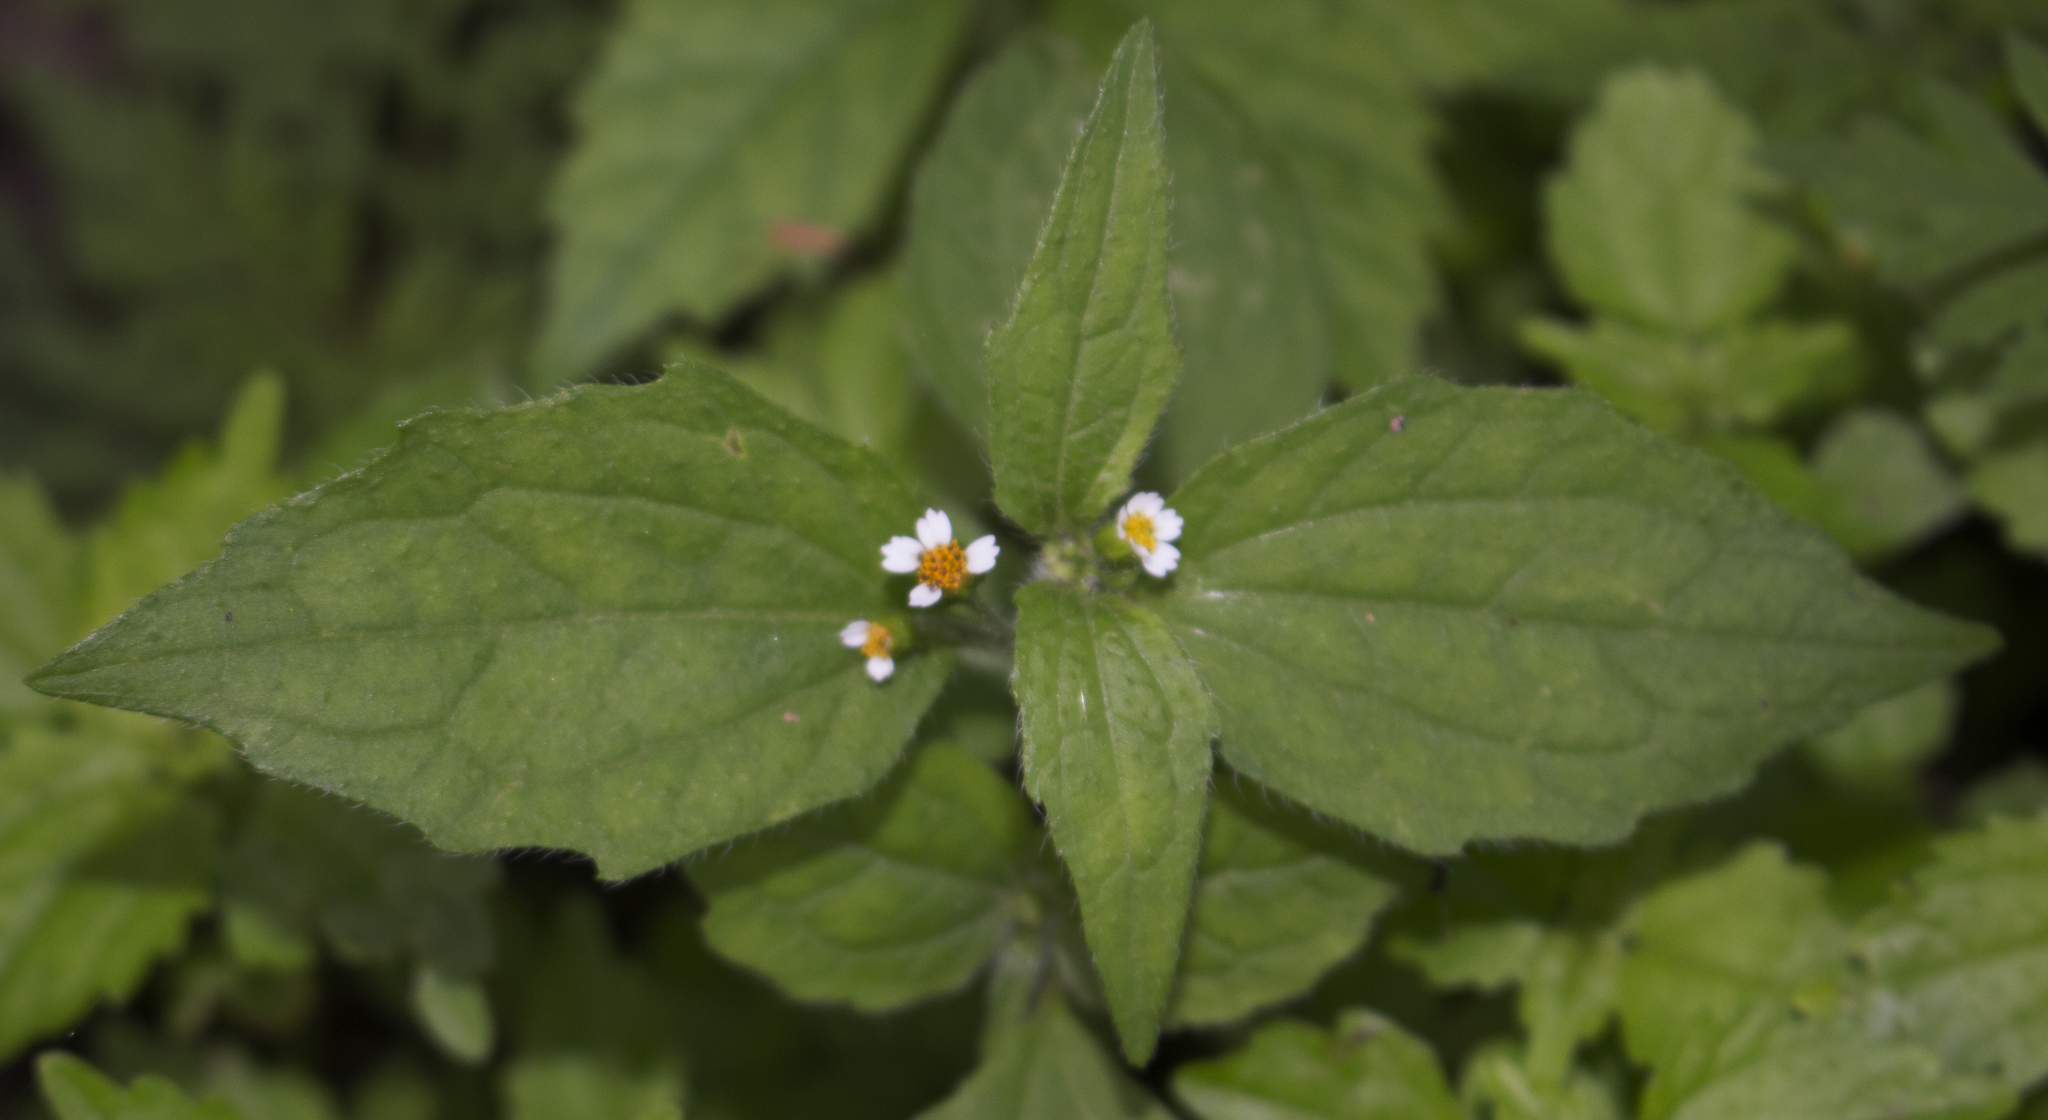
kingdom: Plantae
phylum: Tracheophyta
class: Magnoliopsida
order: Asterales
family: Asteraceae
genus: Galinsoga
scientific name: Galinsoga quadriradiata
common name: Shaggy soldier
